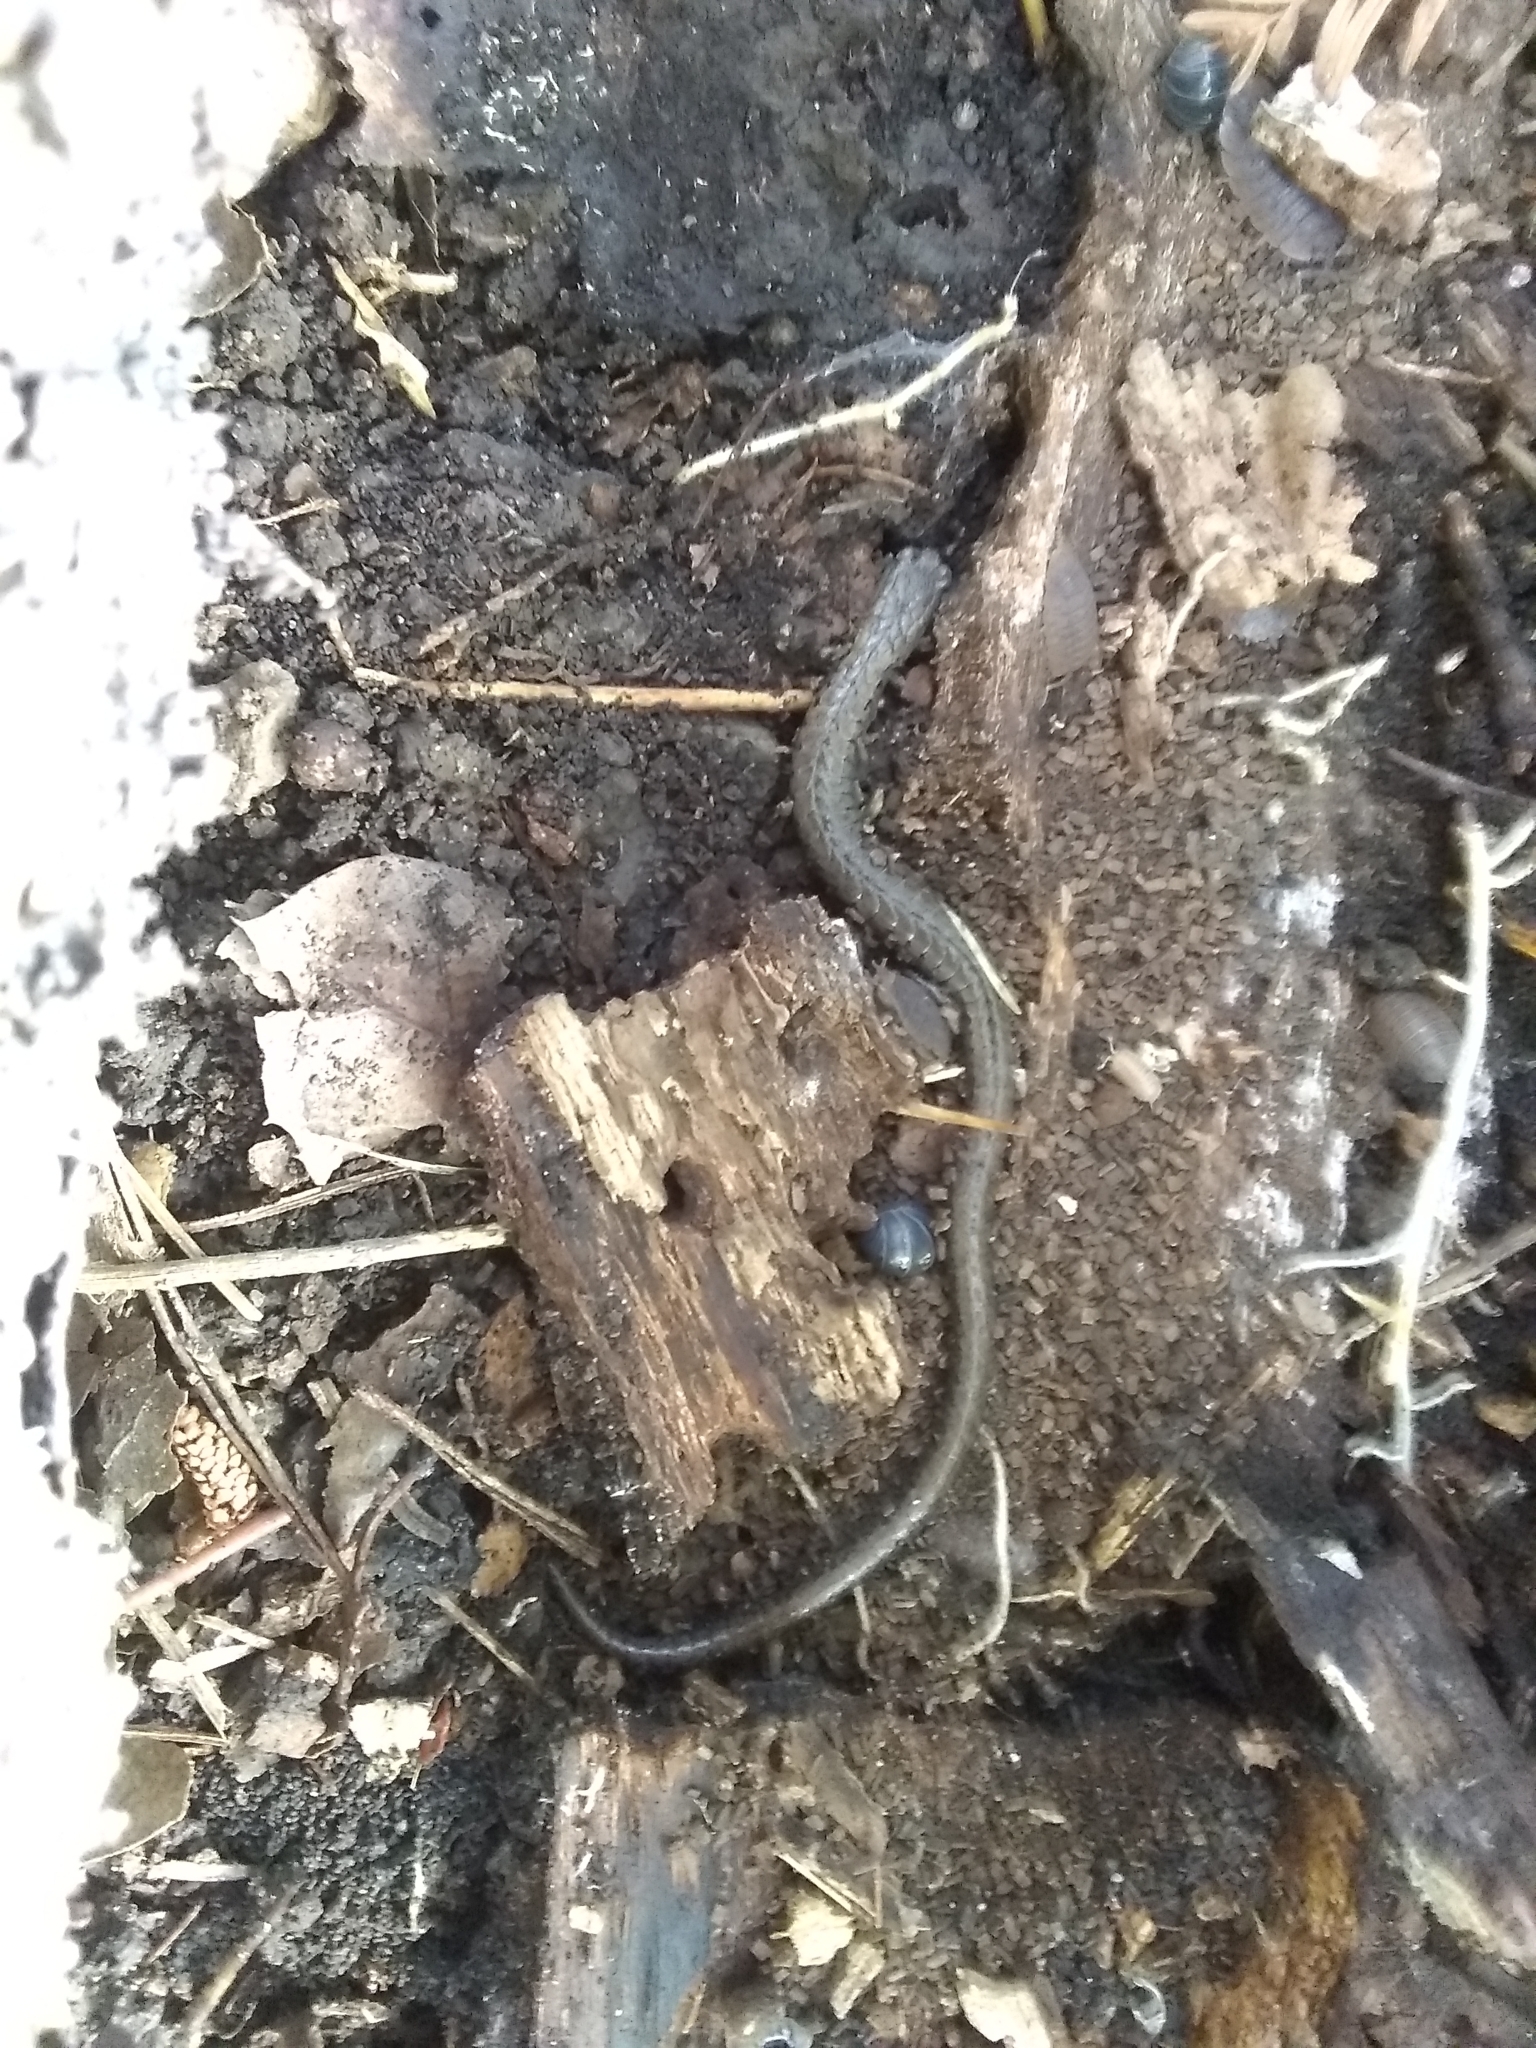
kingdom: Animalia
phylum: Chordata
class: Amphibia
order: Caudata
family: Plethodontidae
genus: Batrachoseps
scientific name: Batrachoseps attenuatus
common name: California slender salamander
